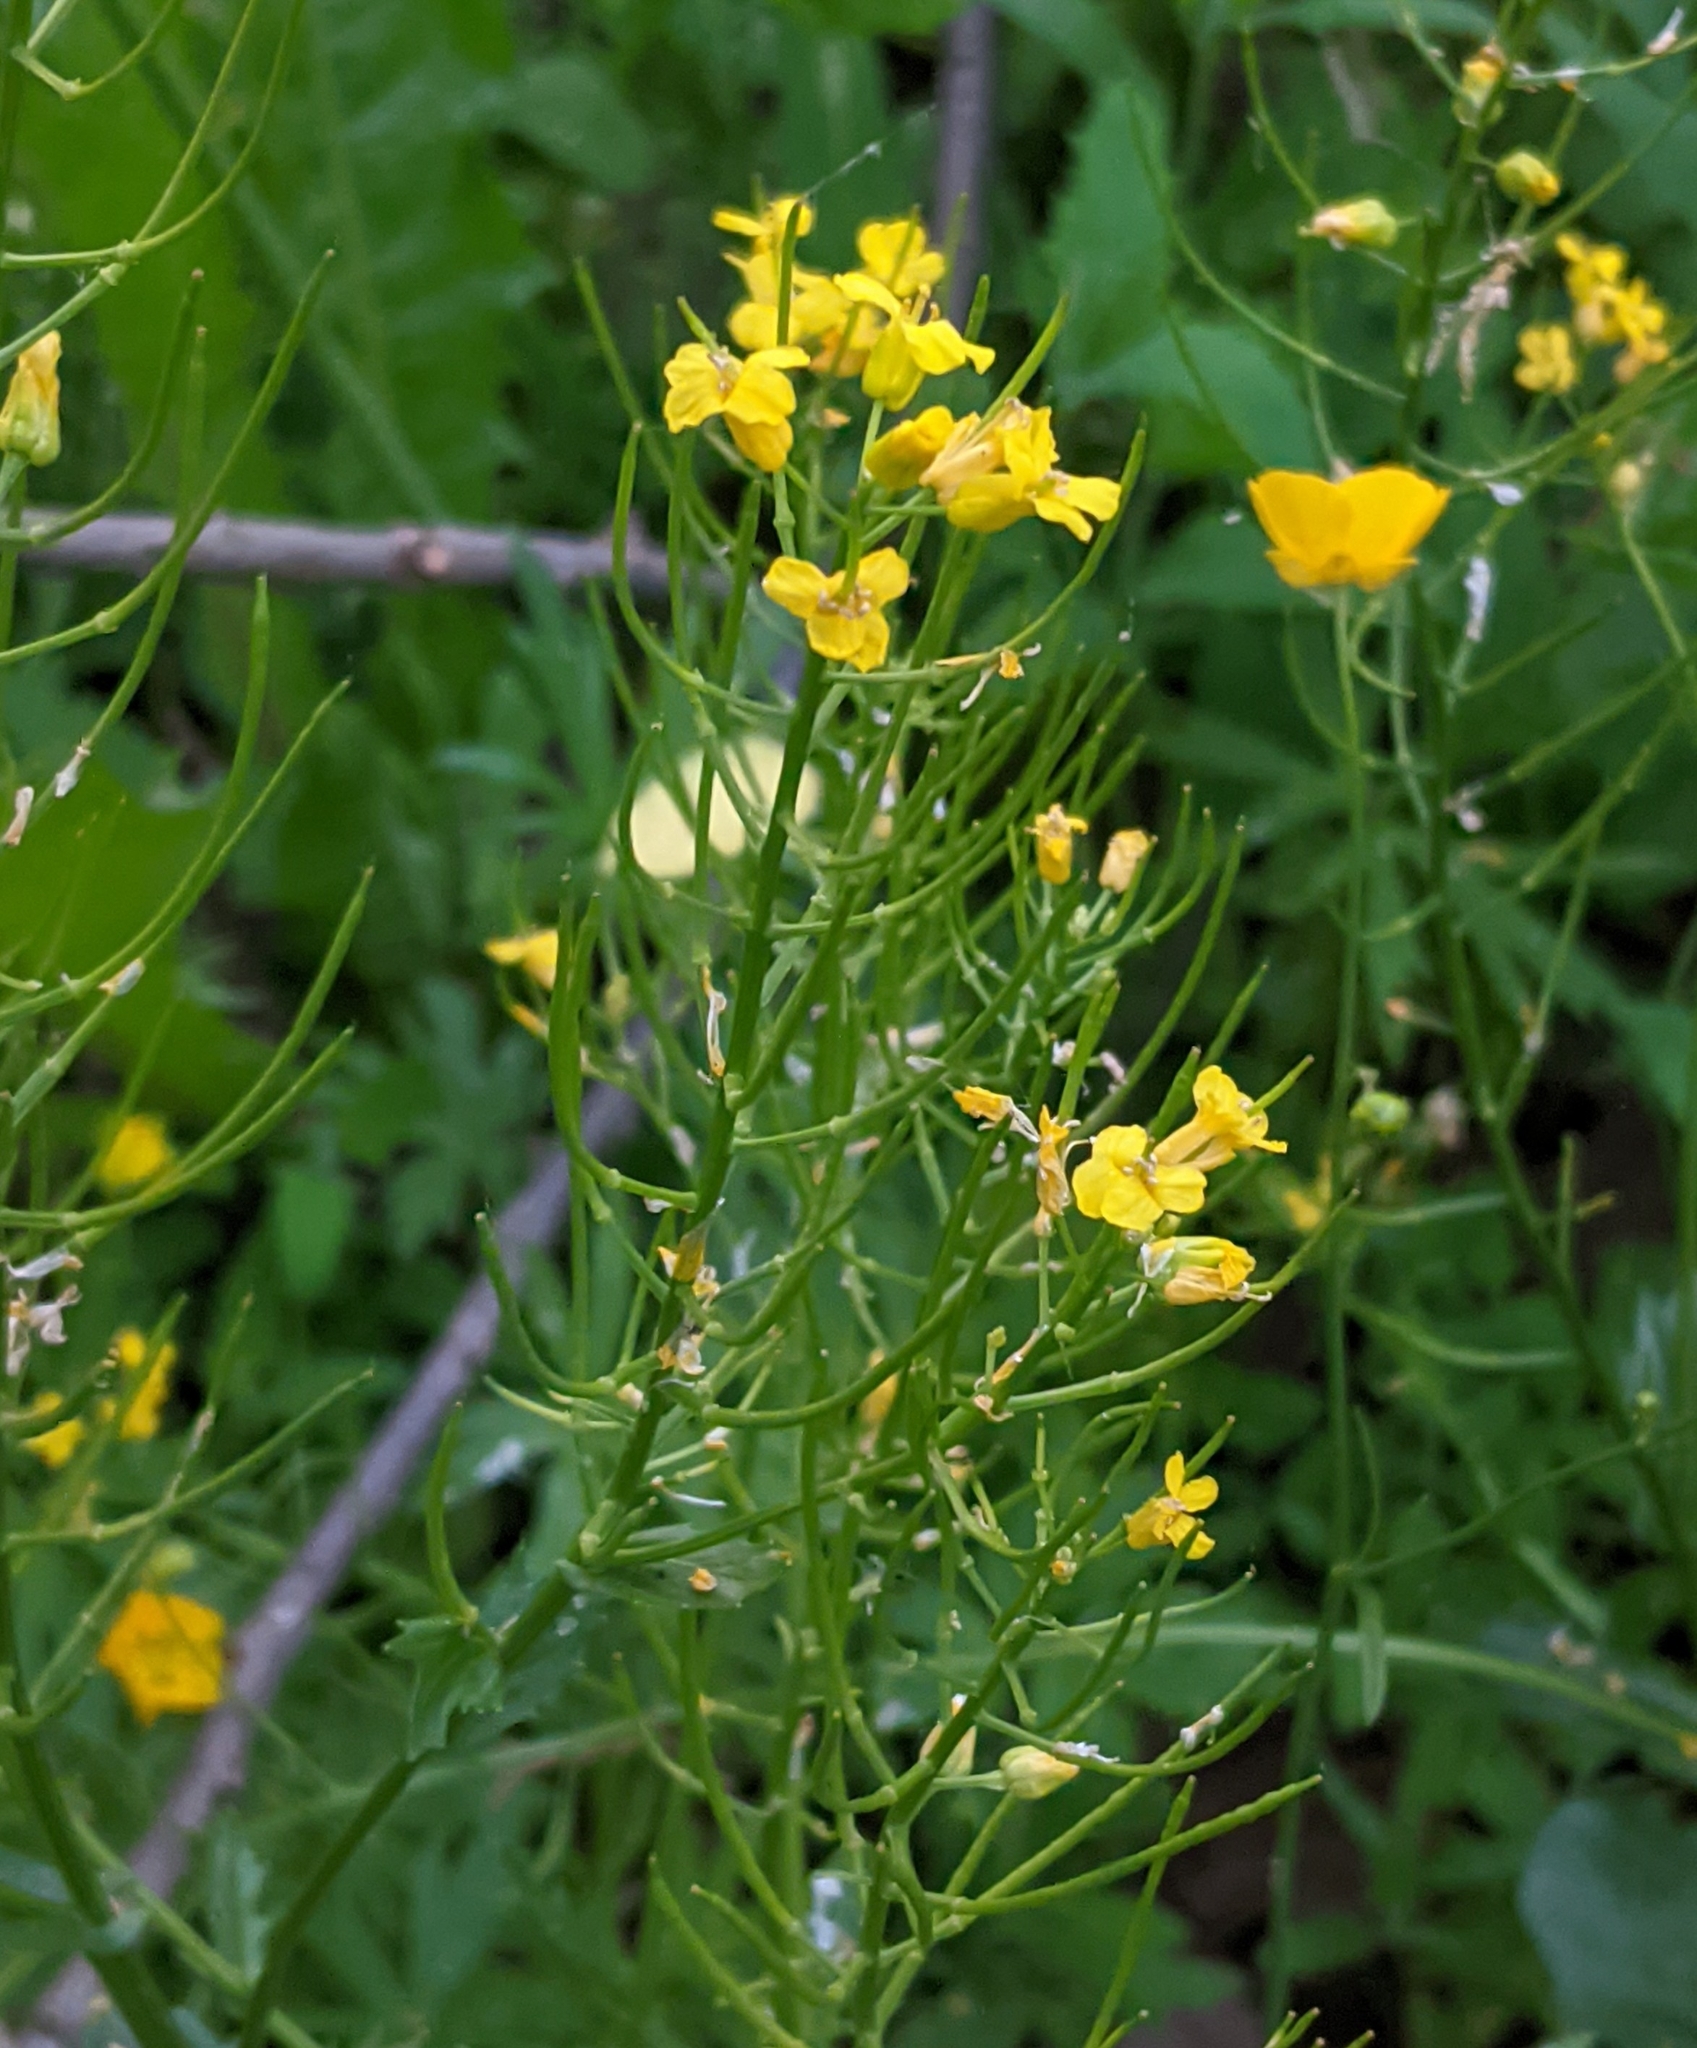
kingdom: Plantae
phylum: Tracheophyta
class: Magnoliopsida
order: Brassicales
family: Brassicaceae
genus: Barbarea
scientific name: Barbarea vulgaris
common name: Cressy-greens
